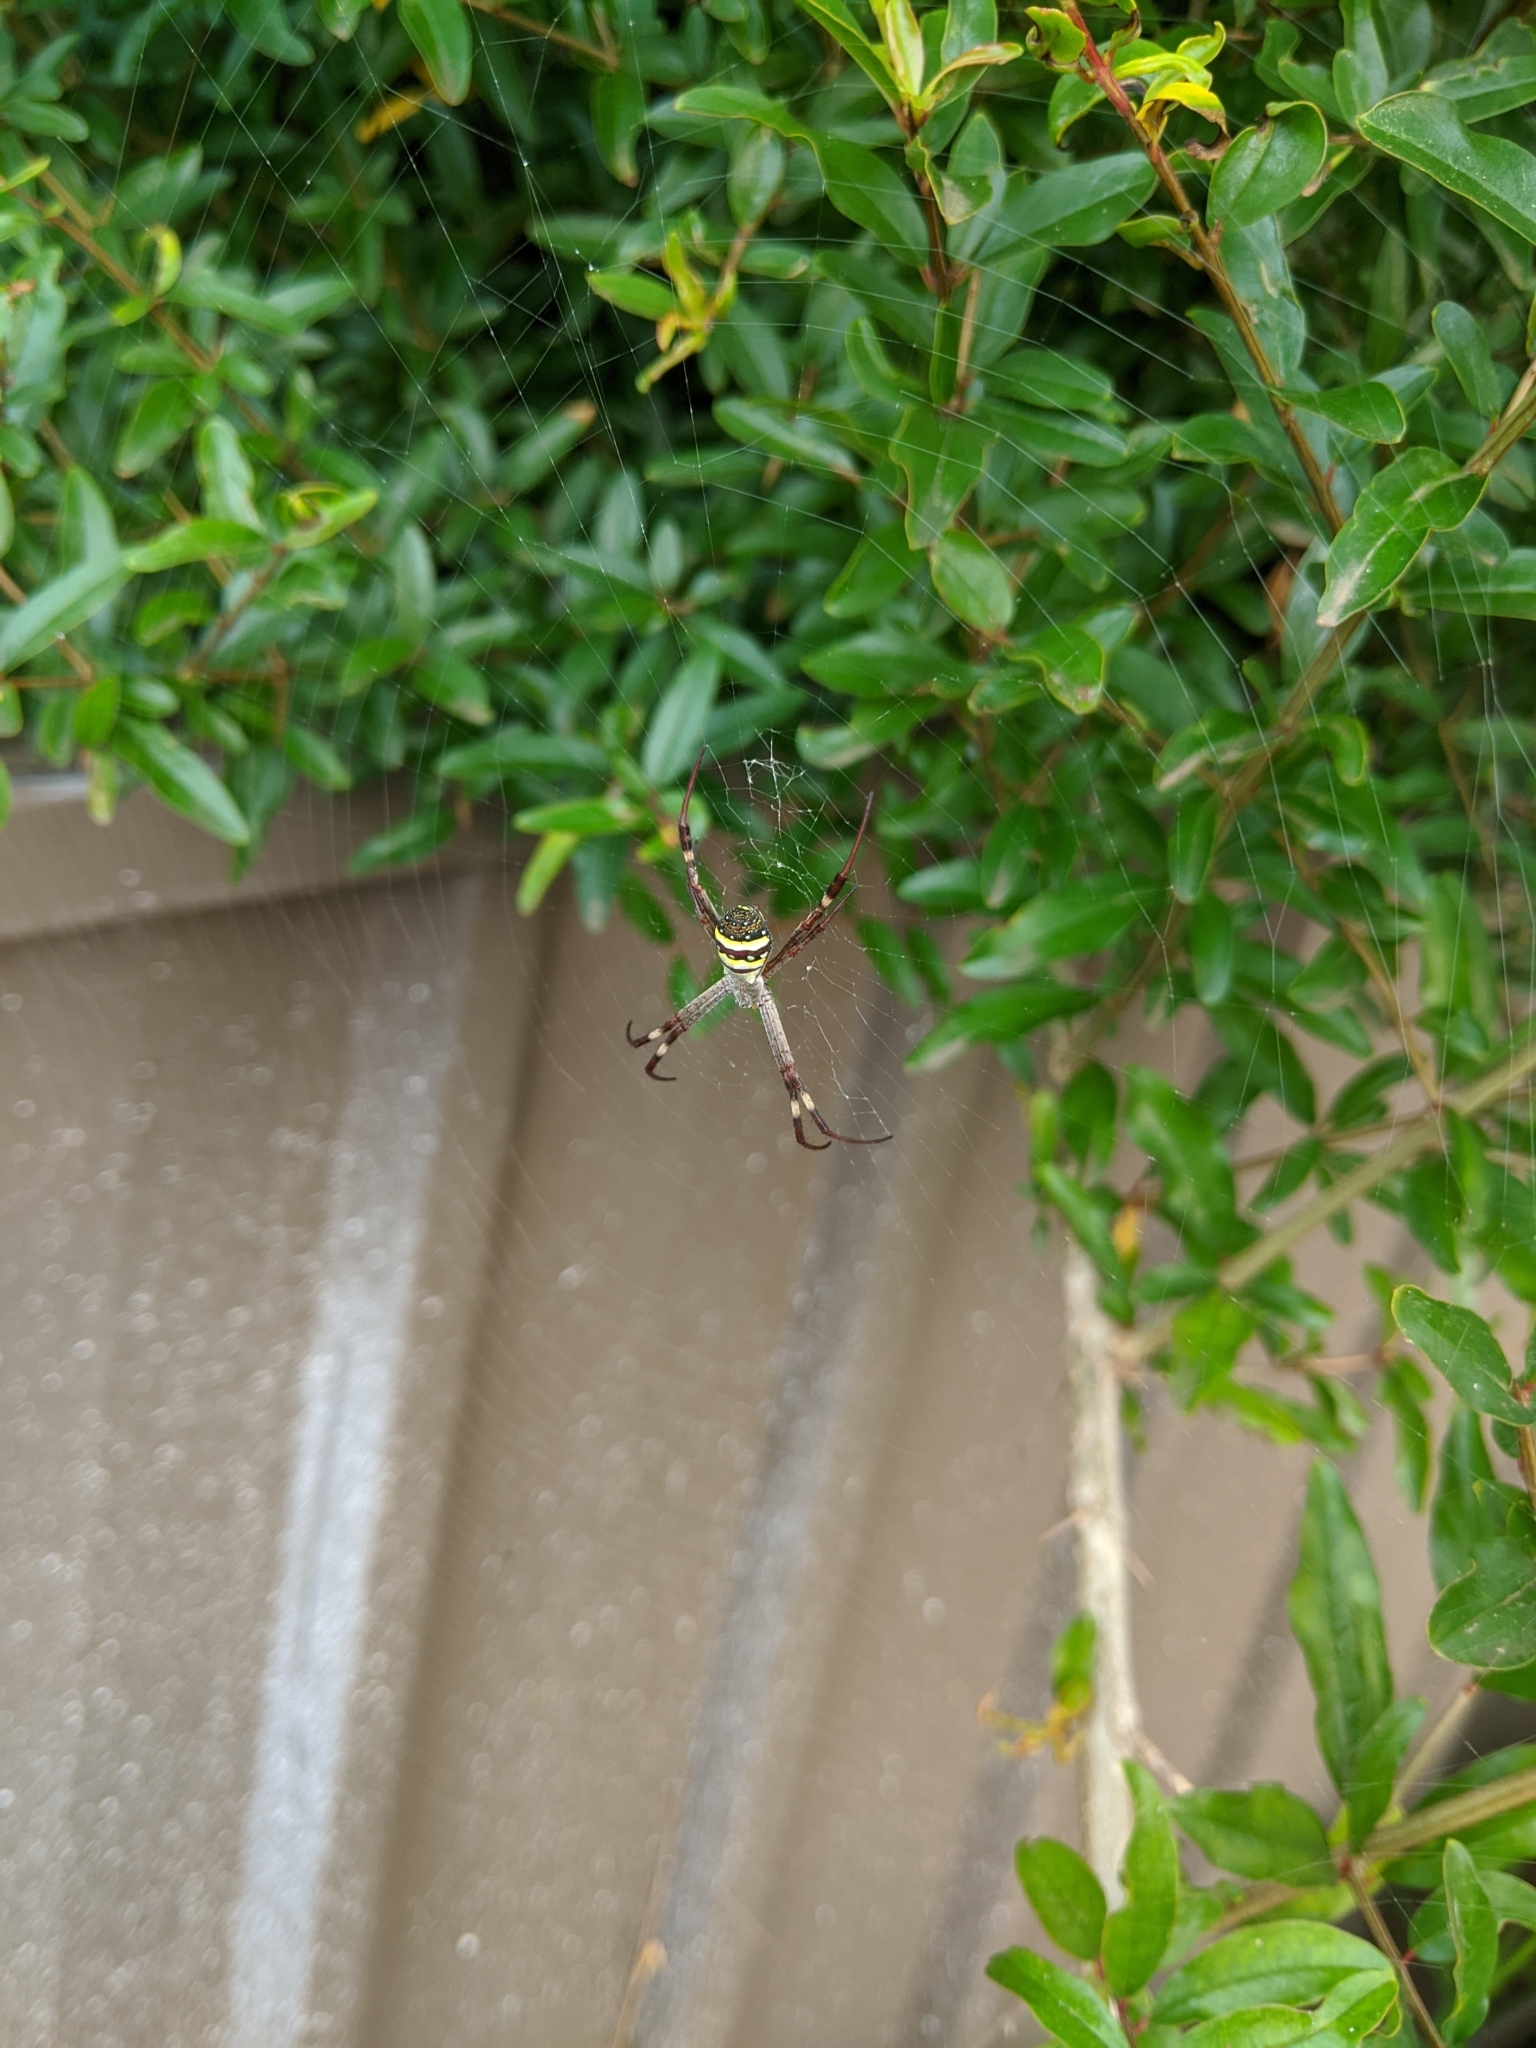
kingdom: Animalia
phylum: Arthropoda
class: Arachnida
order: Araneae
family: Araneidae
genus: Argiope
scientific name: Argiope keyserlingi
